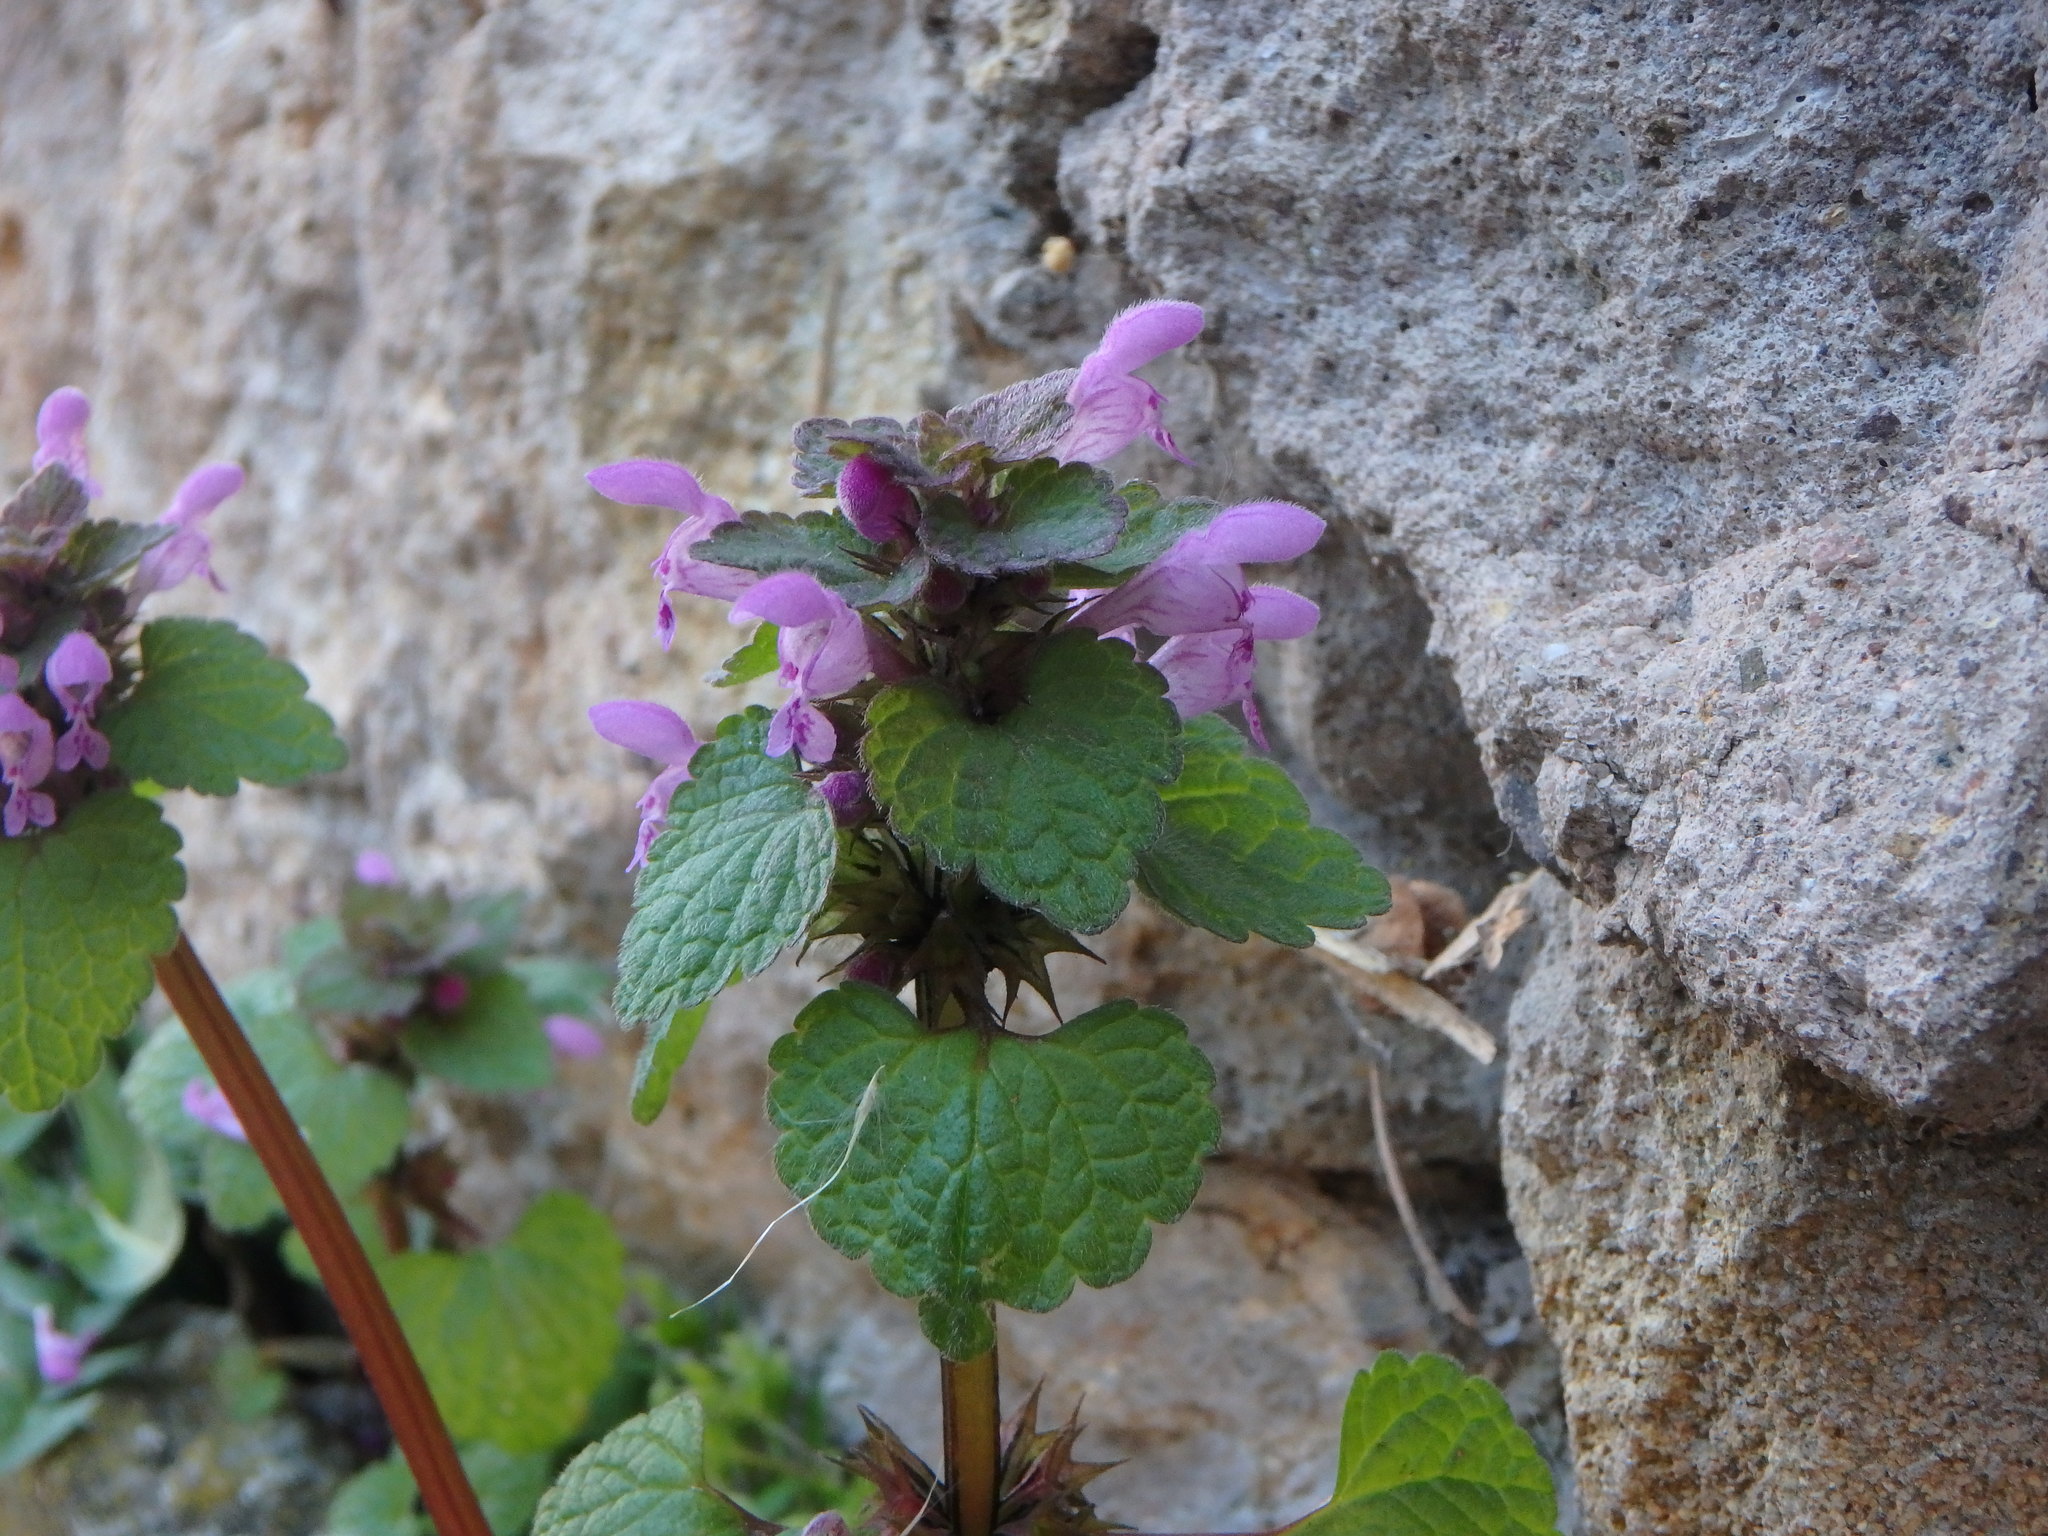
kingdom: Plantae
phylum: Tracheophyta
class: Magnoliopsida
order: Lamiales
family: Lamiaceae
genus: Lamium
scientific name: Lamium purpureum
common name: Red dead-nettle
